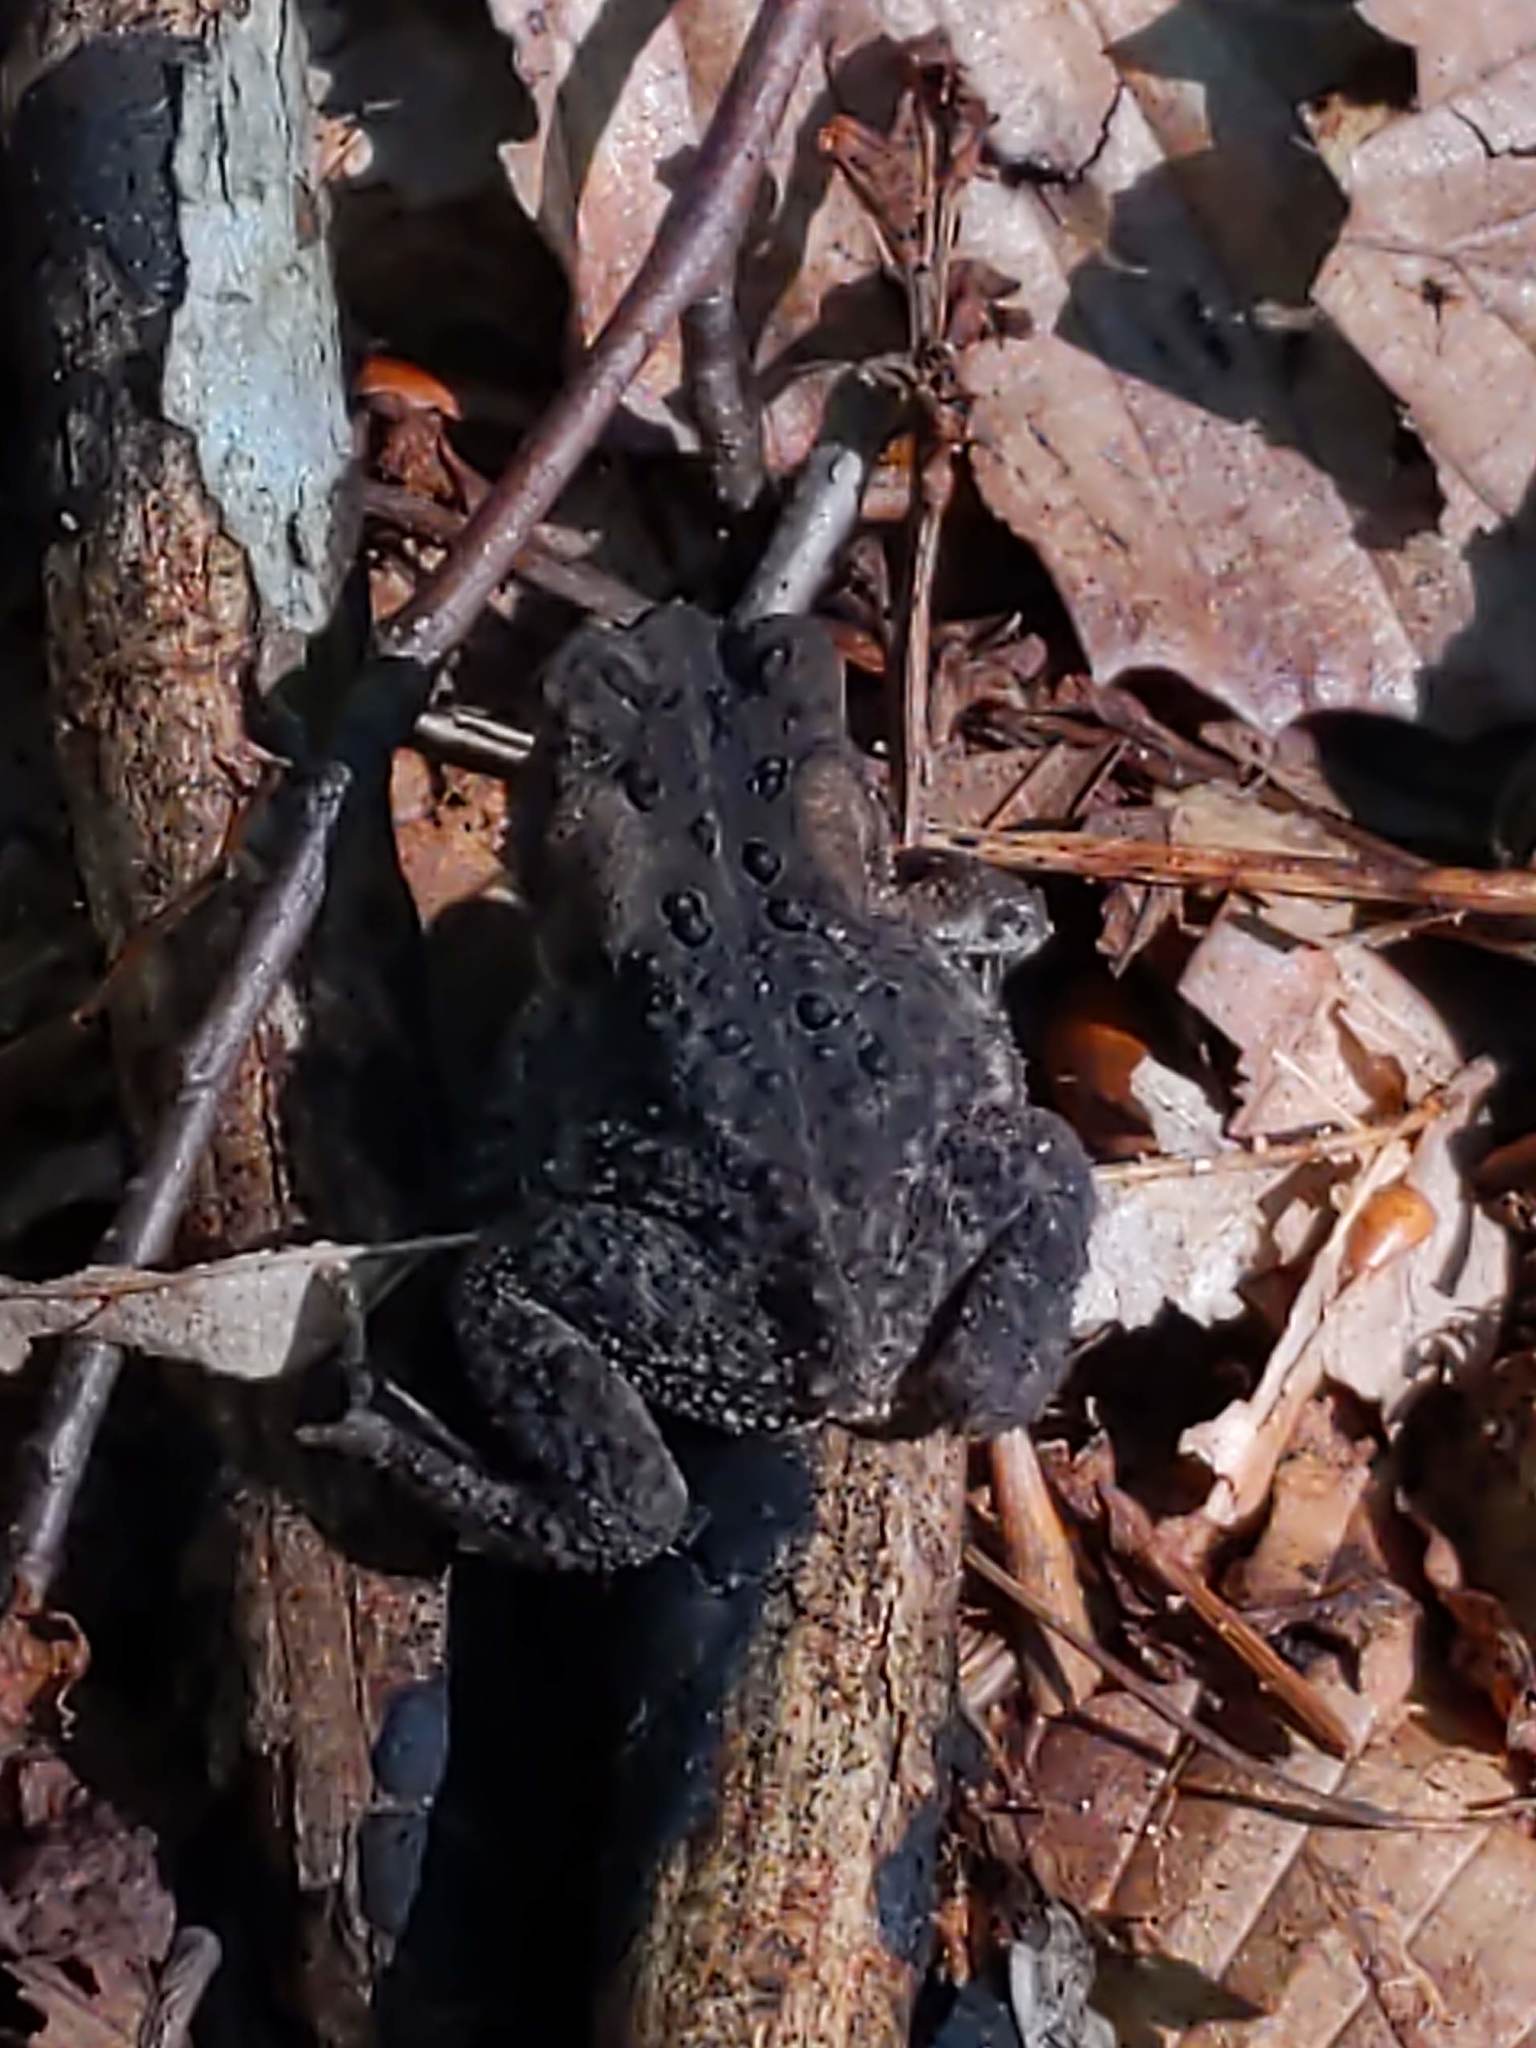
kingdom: Animalia
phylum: Chordata
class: Amphibia
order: Anura
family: Bufonidae
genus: Anaxyrus
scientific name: Anaxyrus americanus
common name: American toad
